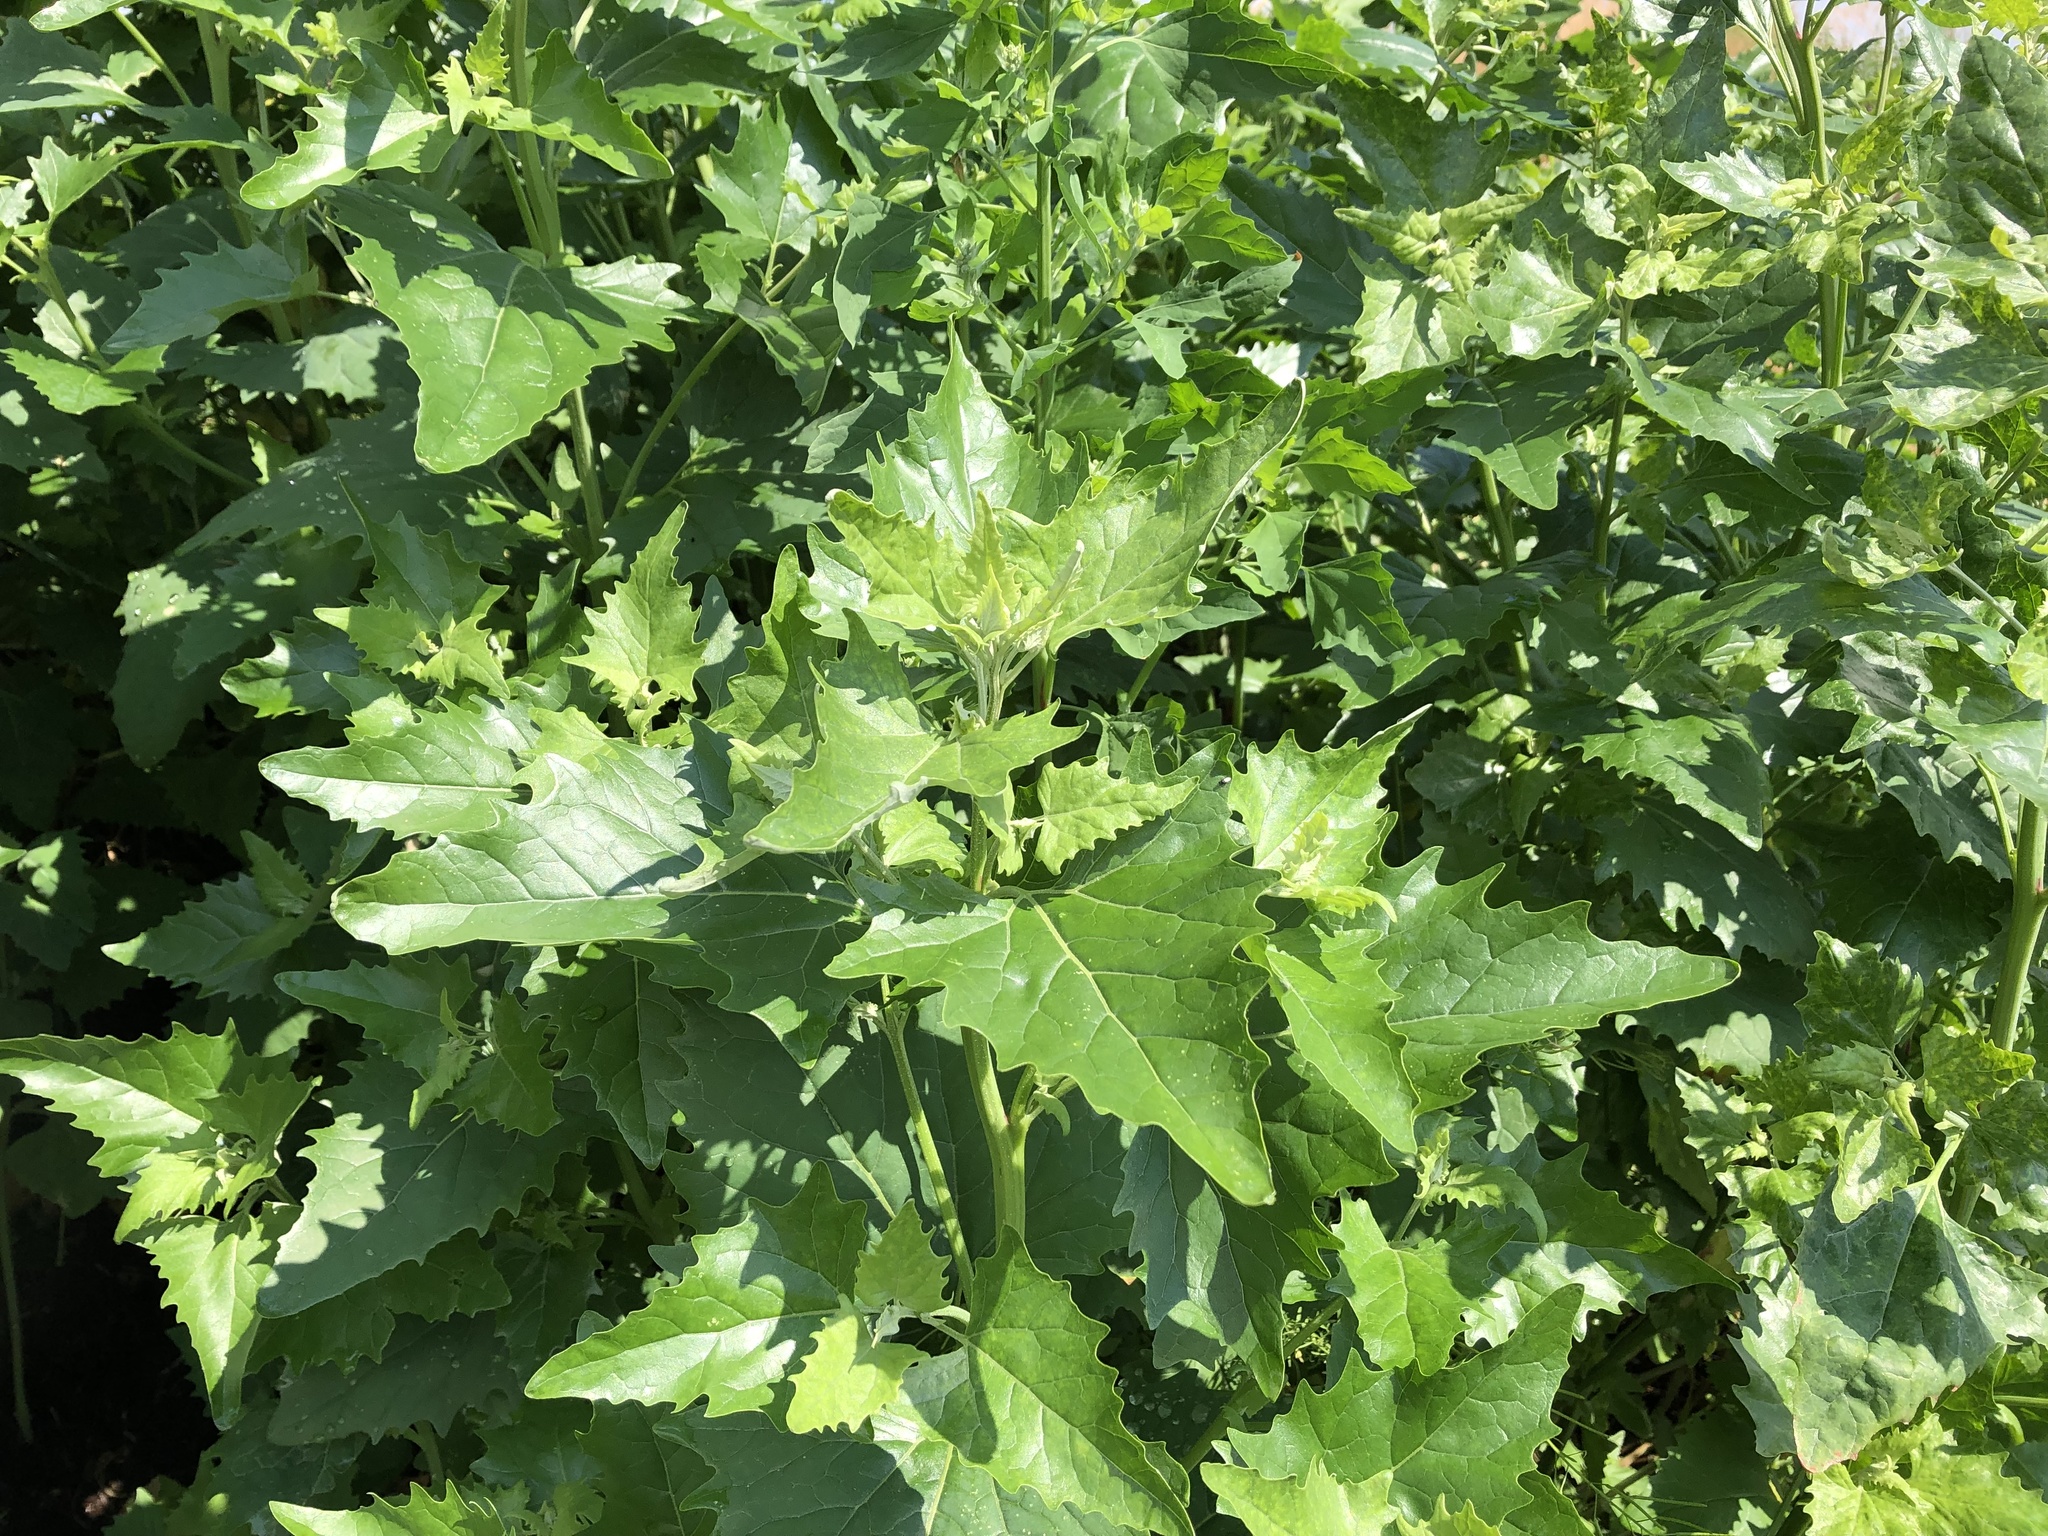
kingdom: Plantae
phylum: Tracheophyta
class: Magnoliopsida
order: Caryophyllales
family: Amaranthaceae
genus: Atriplex
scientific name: Atriplex sagittata
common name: Purple orache
